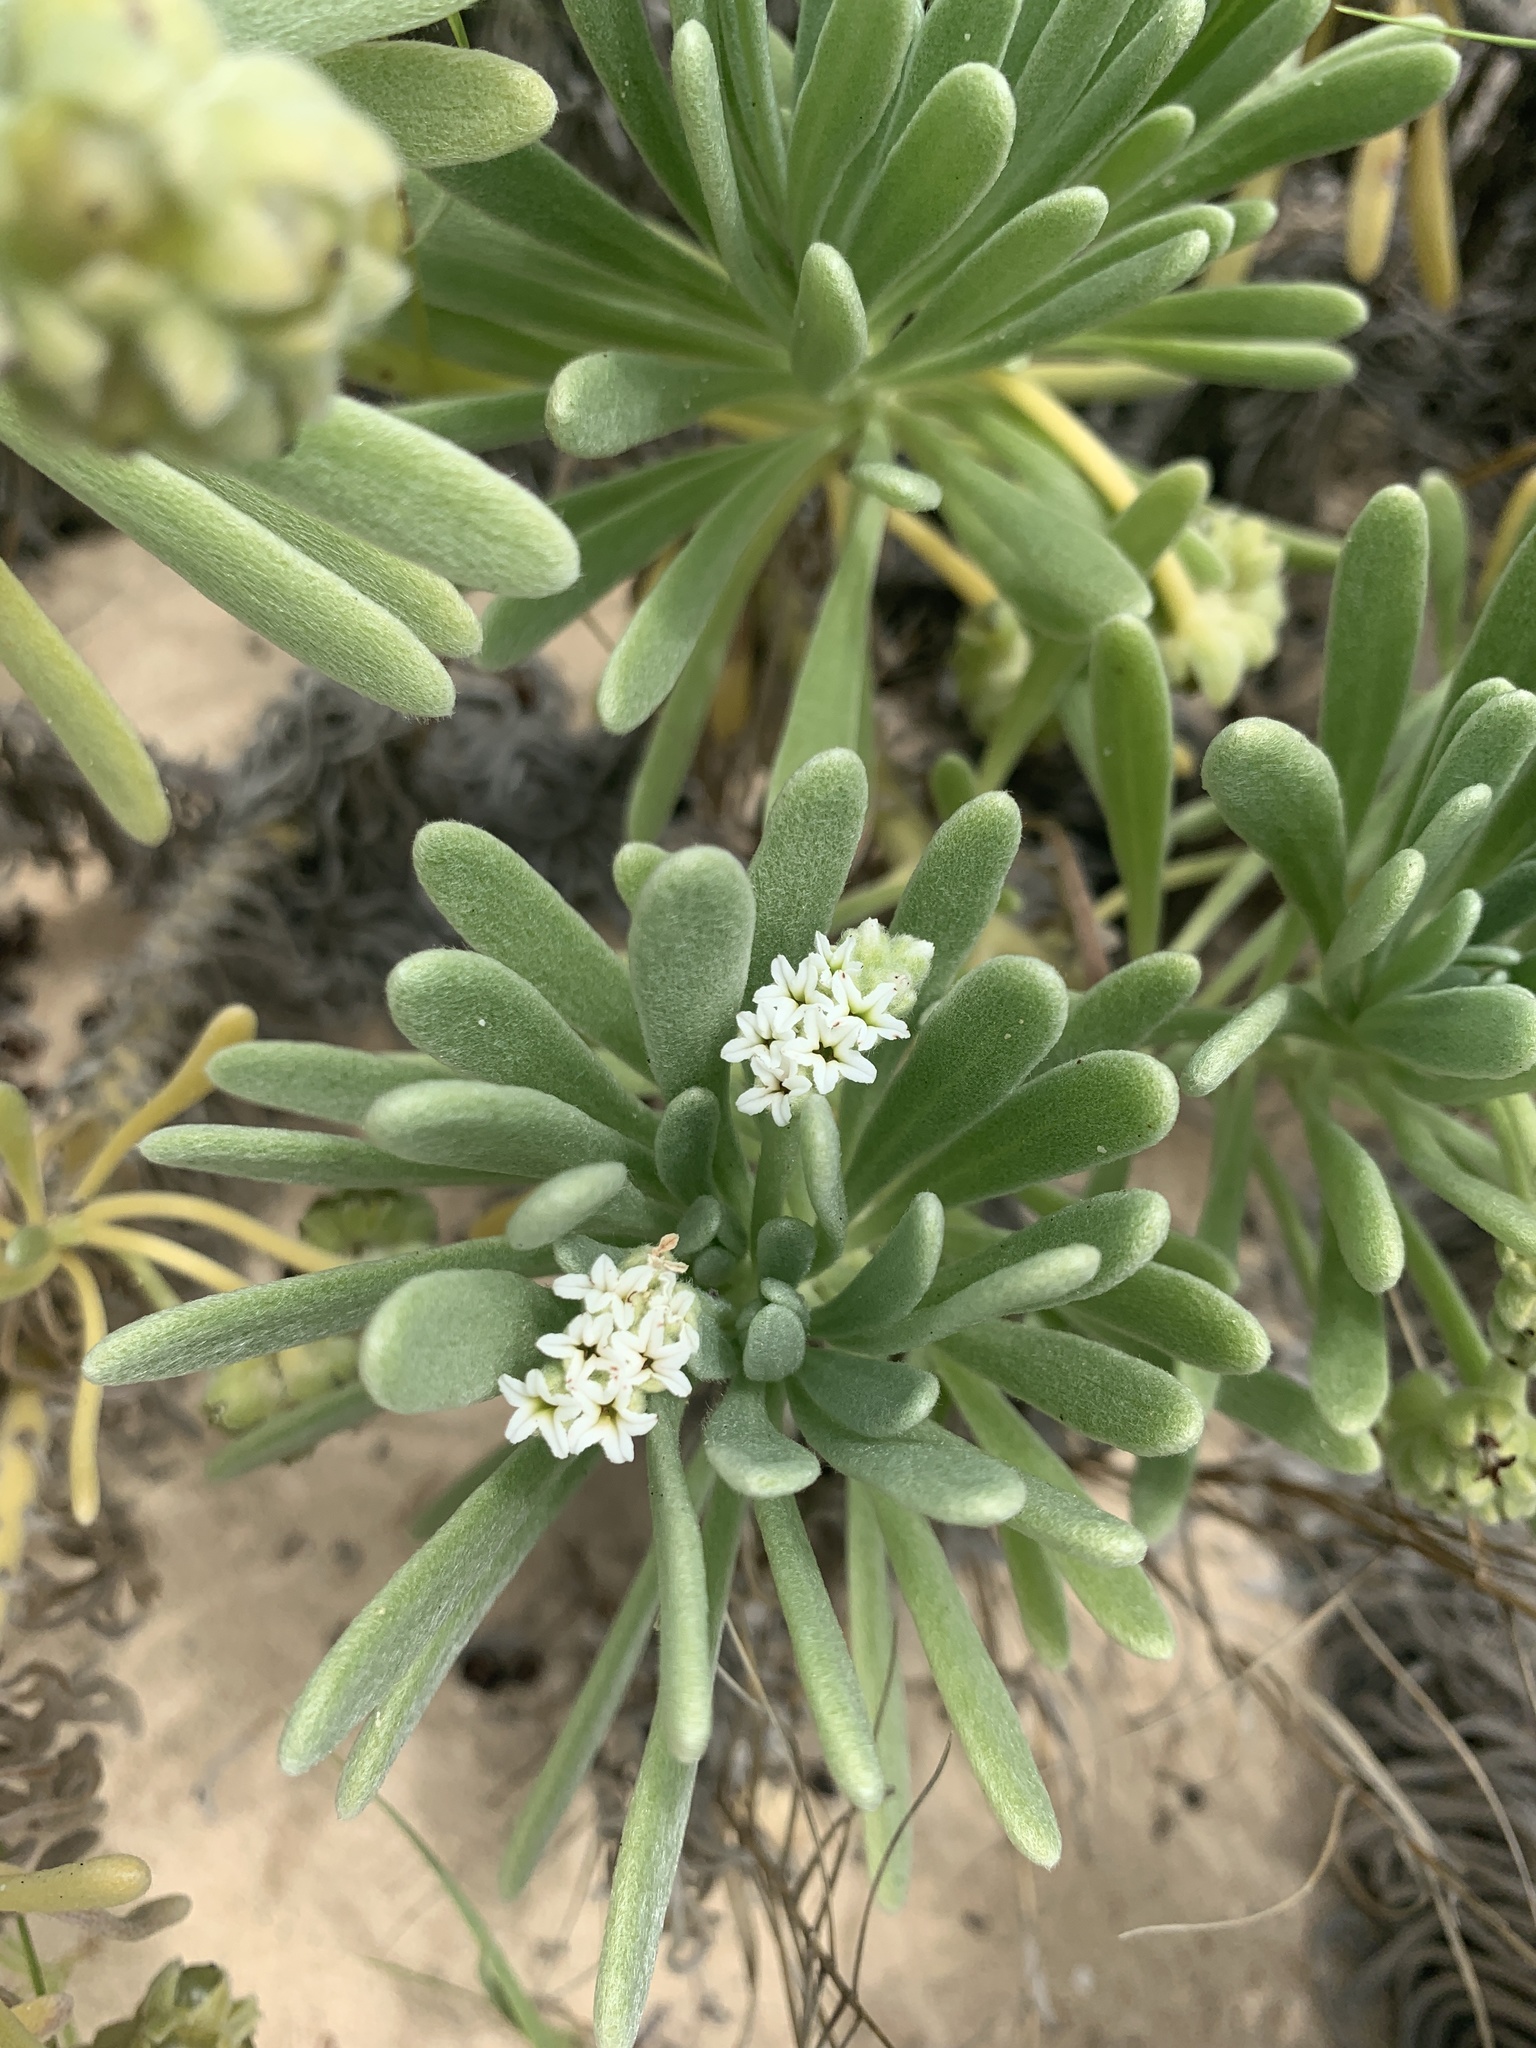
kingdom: Plantae
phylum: Tracheophyta
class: Magnoliopsida
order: Boraginales
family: Heliotropiaceae
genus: Tournefortia
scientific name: Tournefortia gnaphalodes
